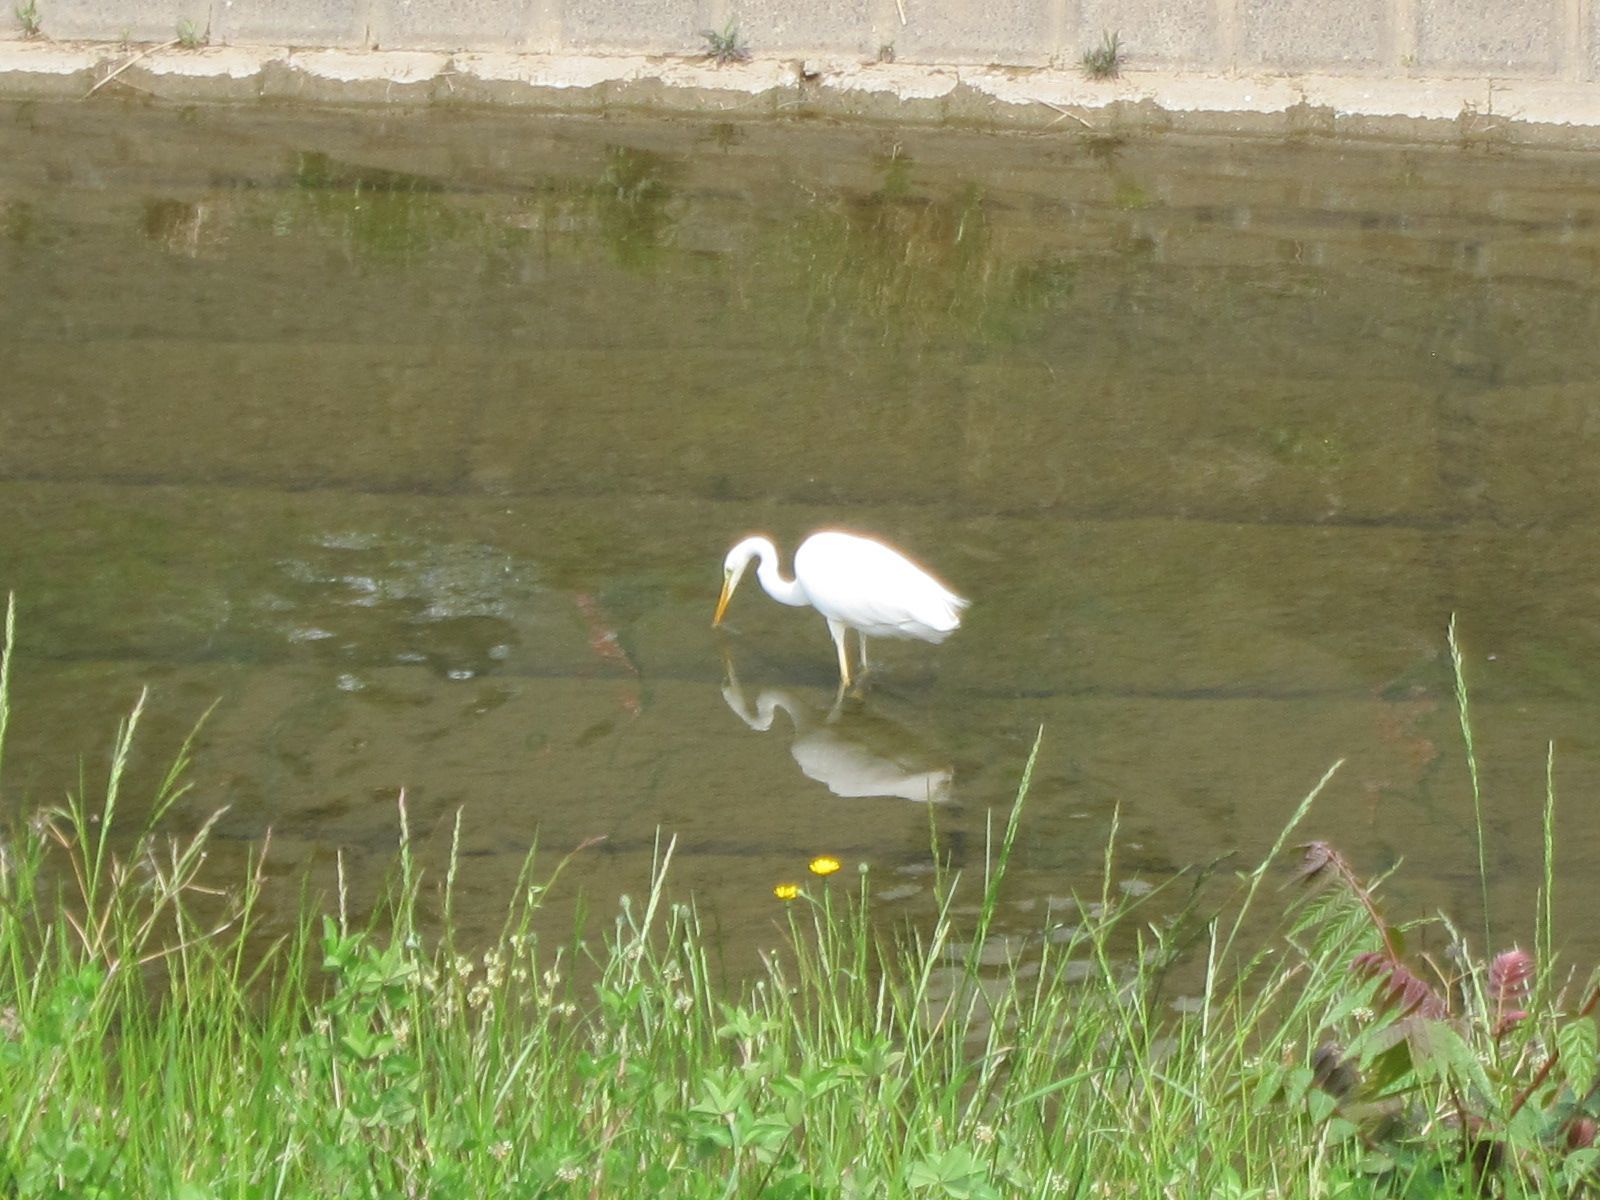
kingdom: Animalia
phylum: Chordata
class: Aves
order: Pelecaniformes
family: Ardeidae
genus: Ardea
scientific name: Ardea modesta
